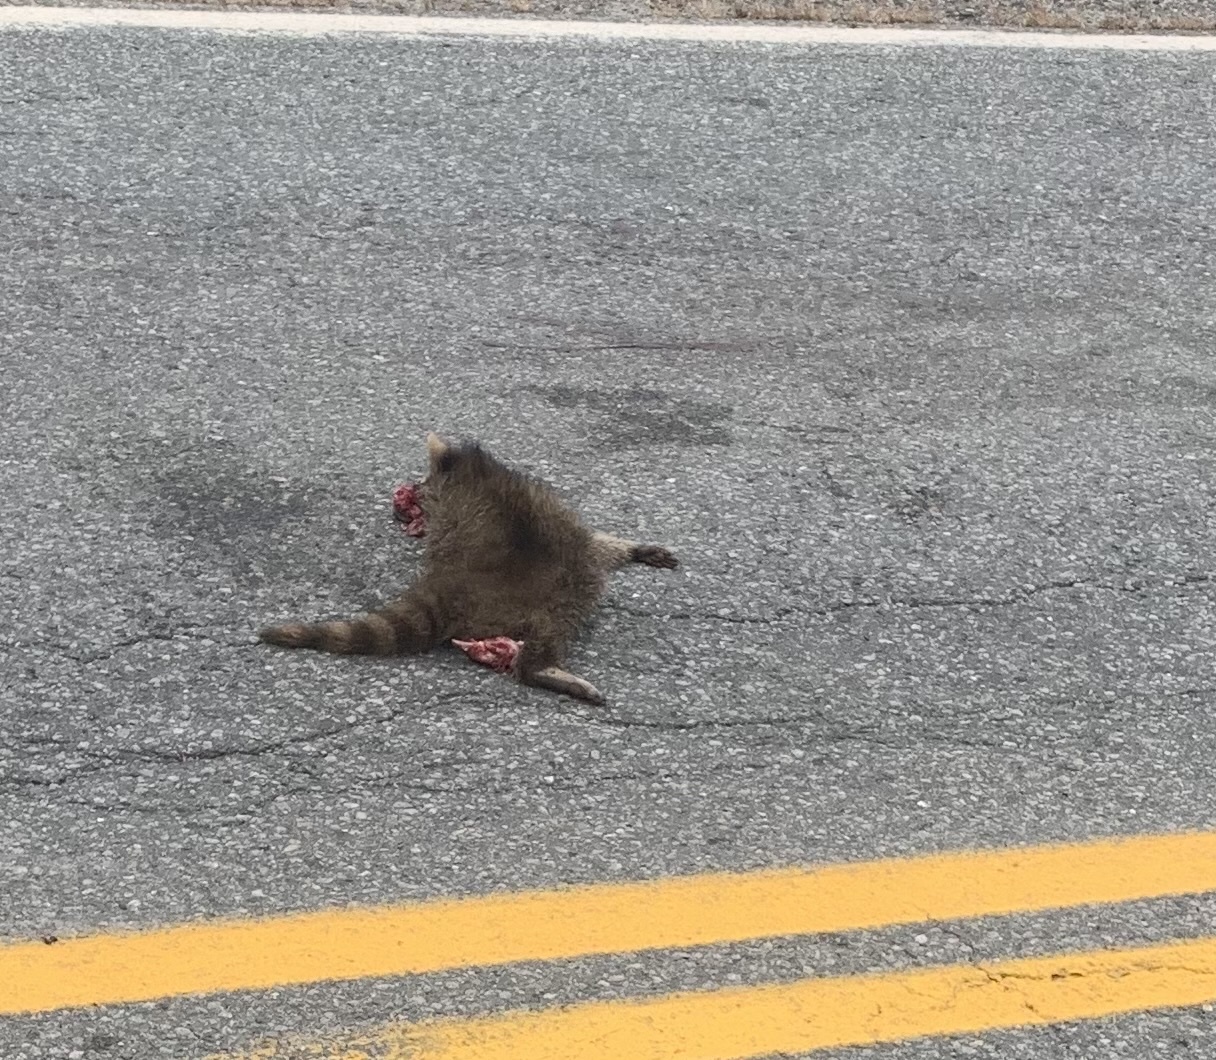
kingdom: Animalia
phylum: Chordata
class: Mammalia
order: Carnivora
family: Procyonidae
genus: Procyon
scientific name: Procyon lotor
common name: Raccoon
